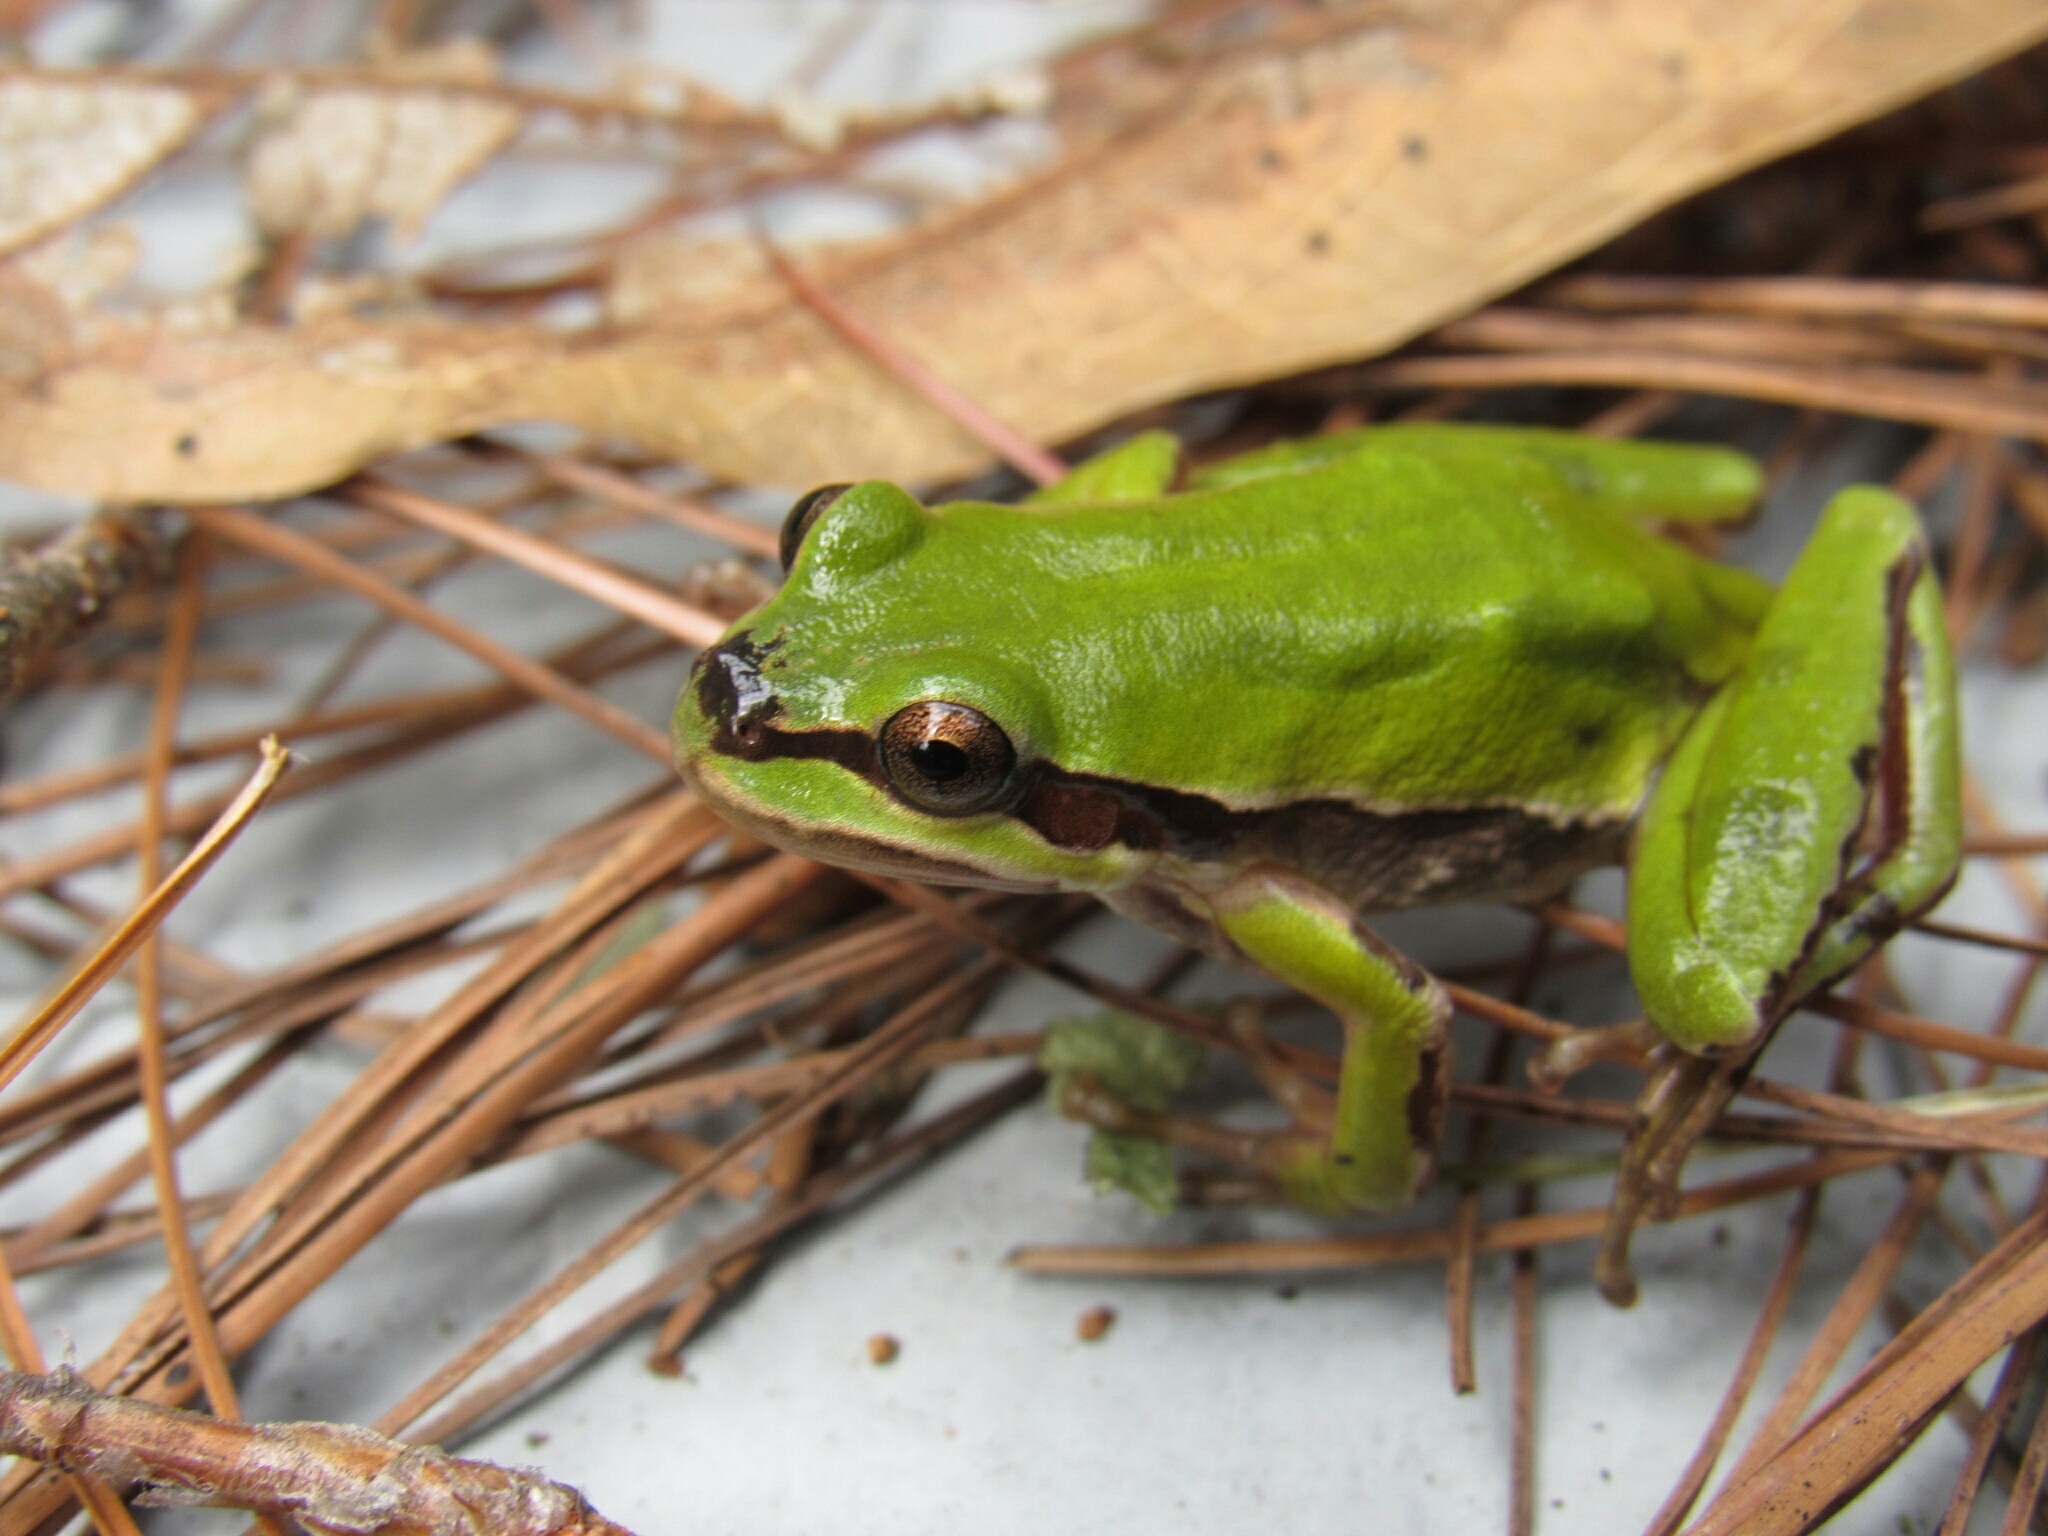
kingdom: Animalia
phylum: Chordata
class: Amphibia
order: Anura
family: Hylidae
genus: Dryophytes
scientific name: Dryophytes eximius
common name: Mountain treefrog
